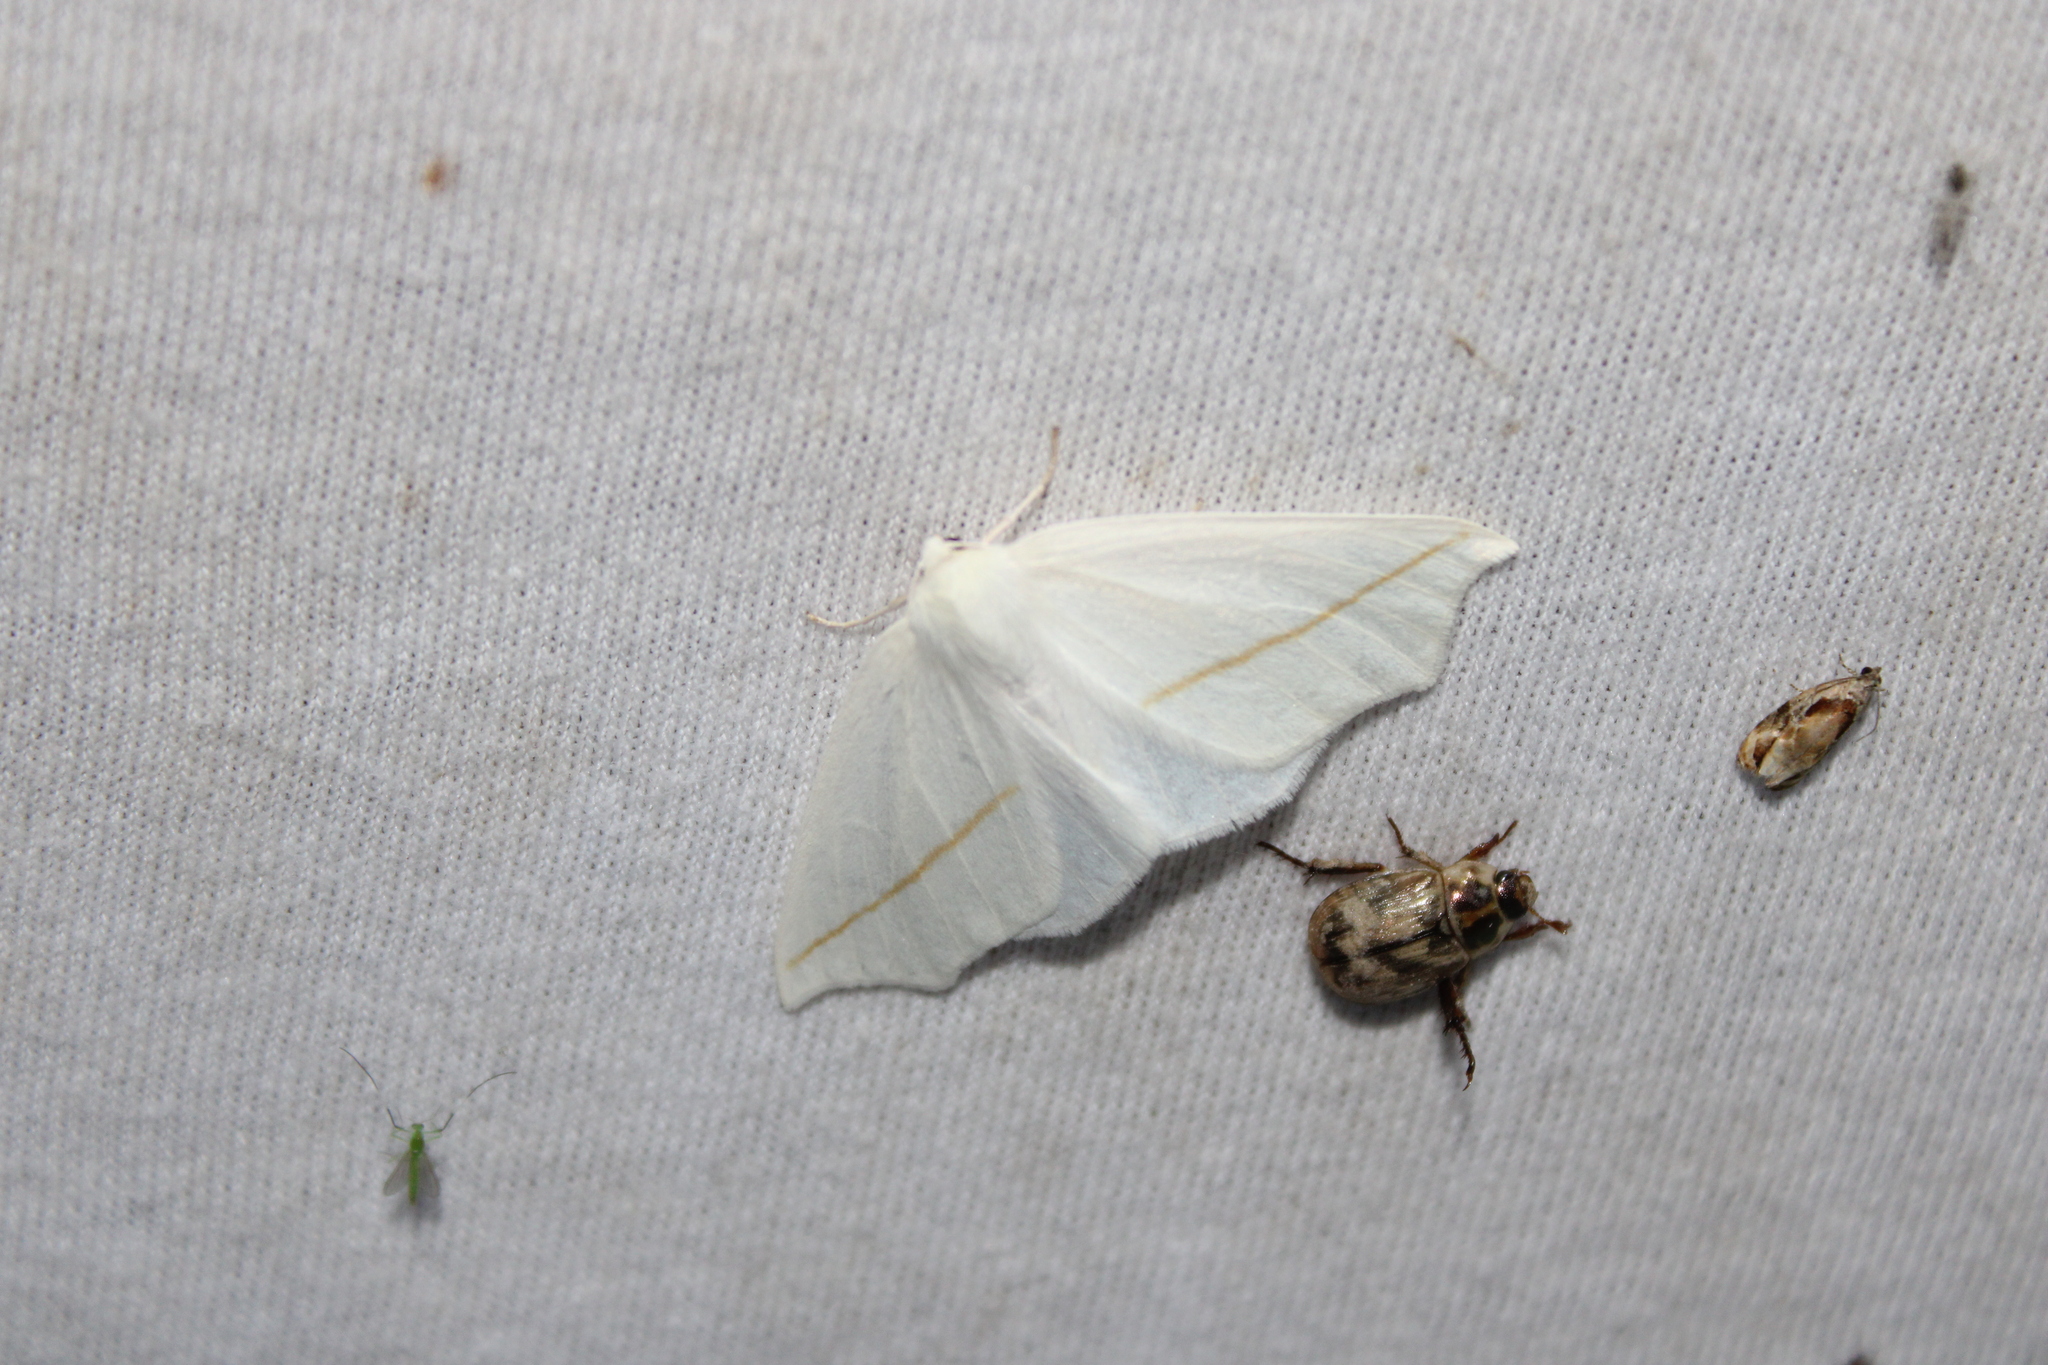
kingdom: Animalia
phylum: Arthropoda
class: Insecta
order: Lepidoptera
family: Geometridae
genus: Tetracis
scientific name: Tetracis cachexiata
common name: White slant-line
